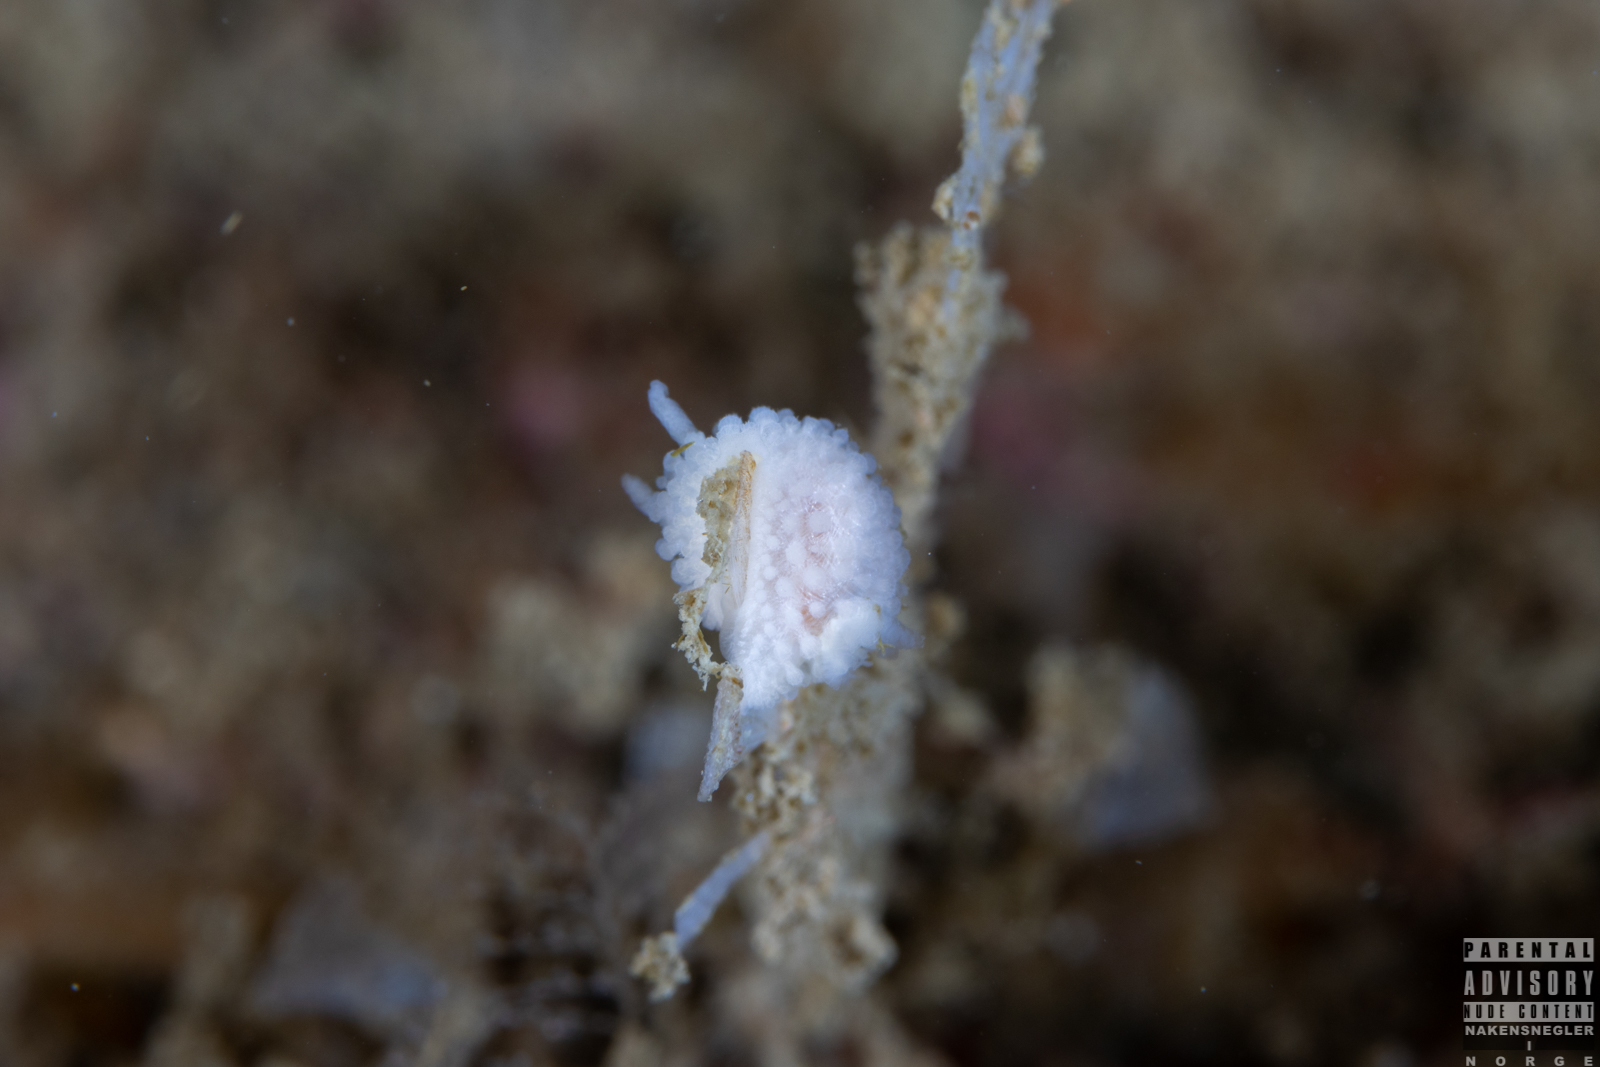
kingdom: Animalia
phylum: Mollusca
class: Gastropoda
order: Nudibranchia
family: Onchidorididae
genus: Onchidoris
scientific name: Onchidoris muricata
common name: Rough doris
